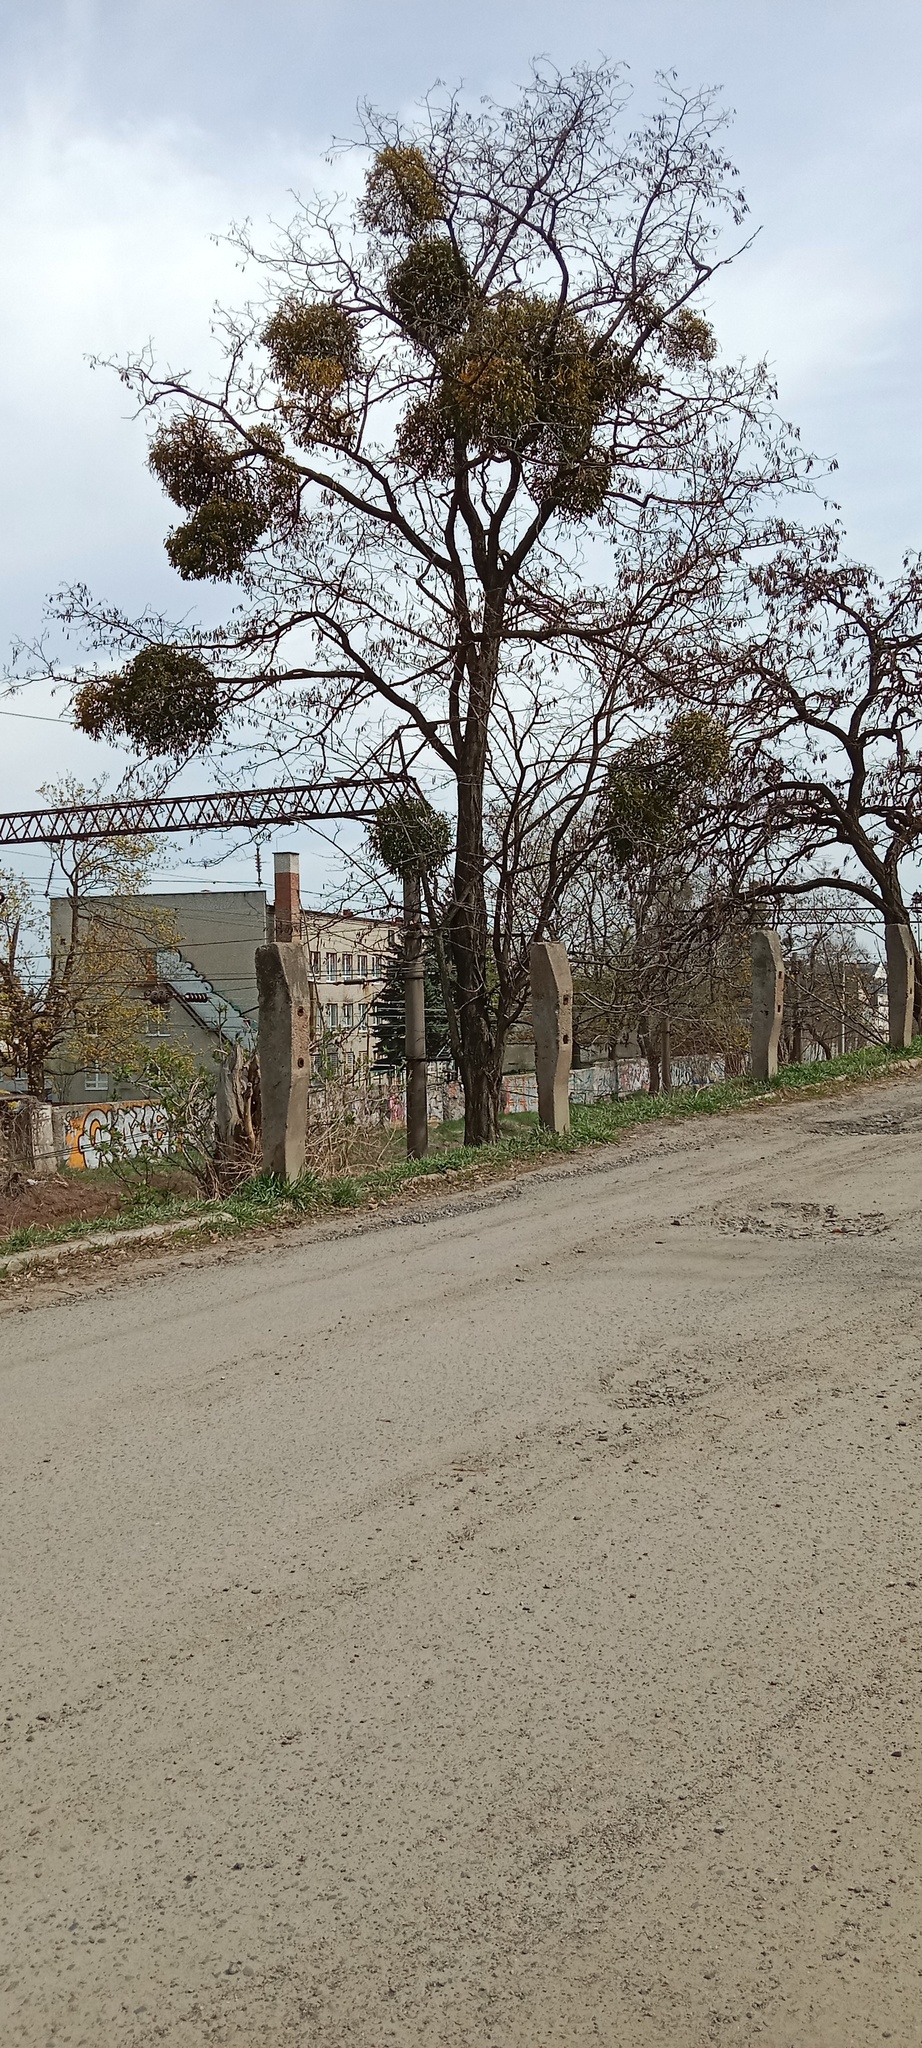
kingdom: Plantae
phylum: Tracheophyta
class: Magnoliopsida
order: Santalales
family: Viscaceae
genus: Viscum
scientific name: Viscum album
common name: Mistletoe
